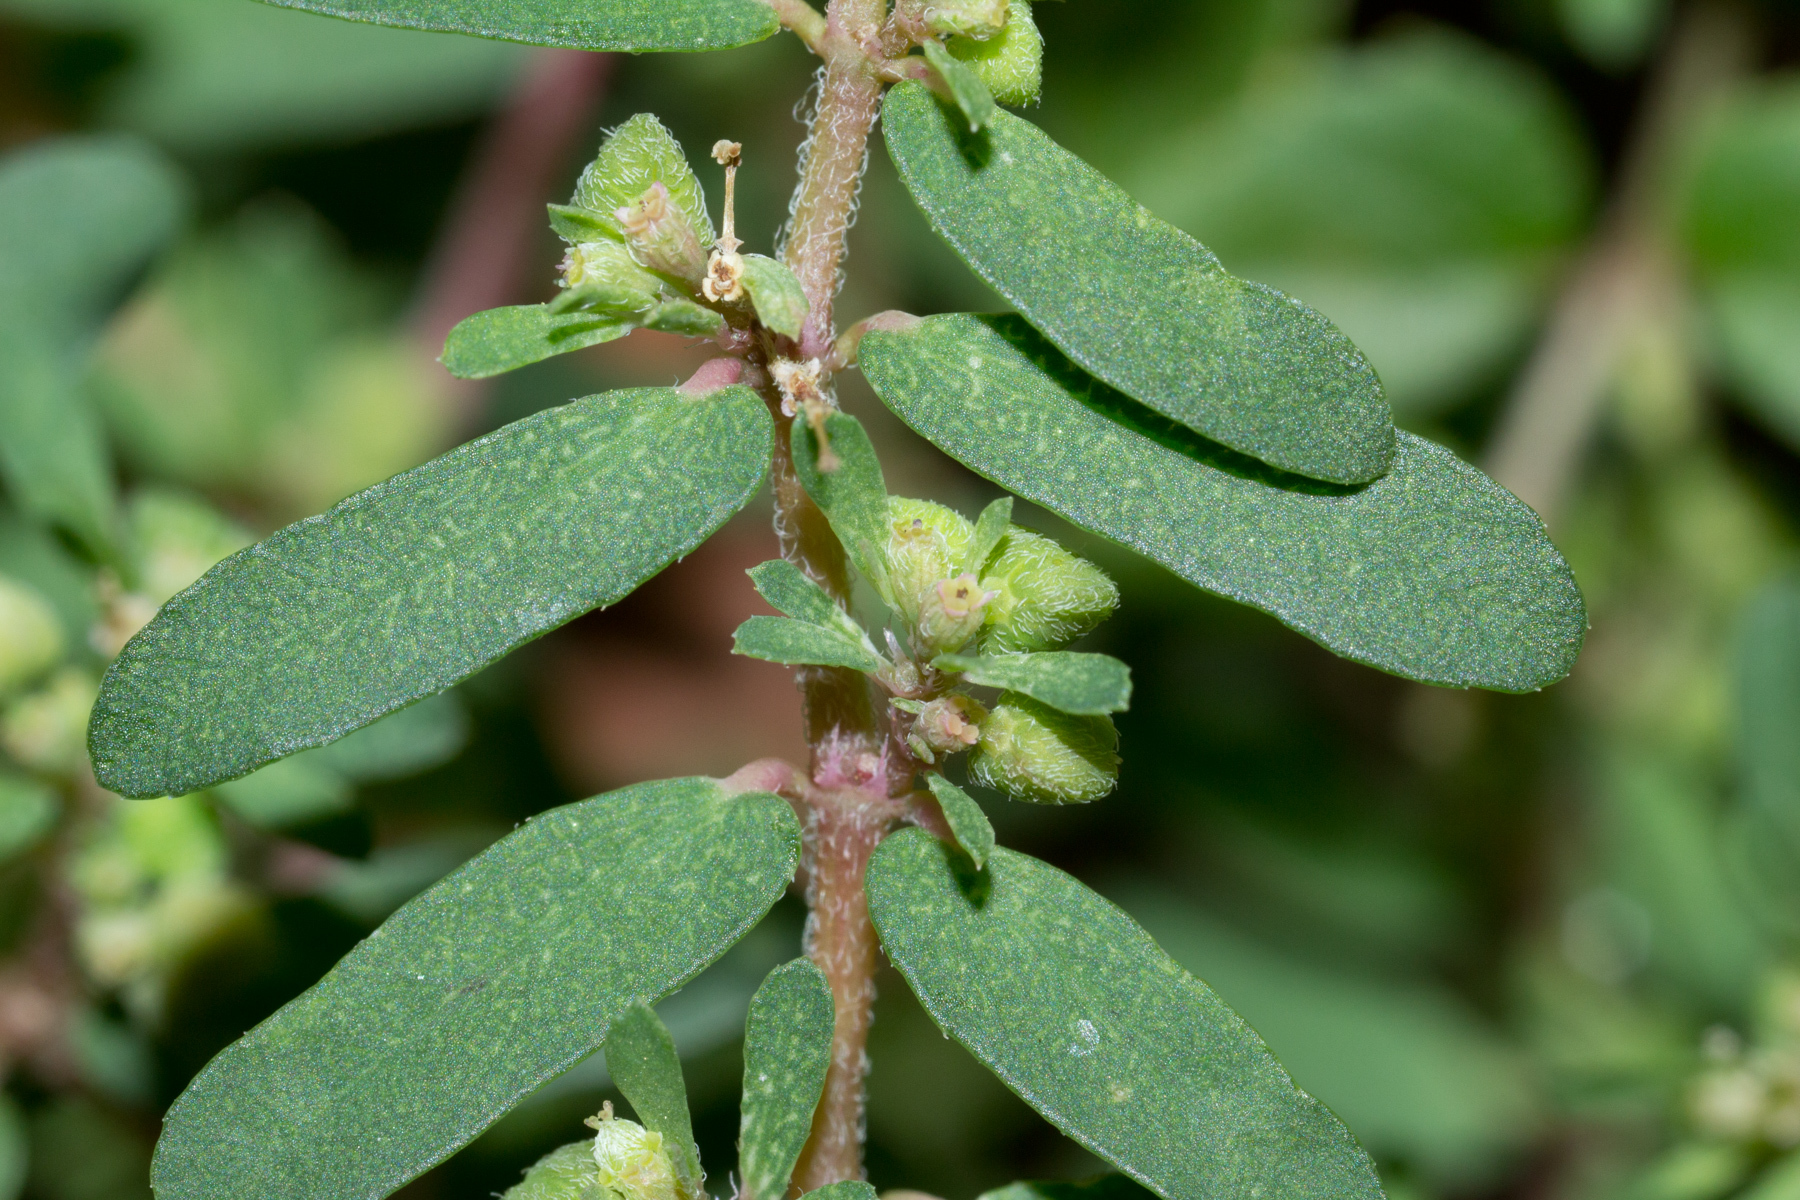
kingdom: Plantae
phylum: Tracheophyta
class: Magnoliopsida
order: Malpighiales
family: Euphorbiaceae
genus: Euphorbia
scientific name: Euphorbia maculata
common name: Spotted spurge
